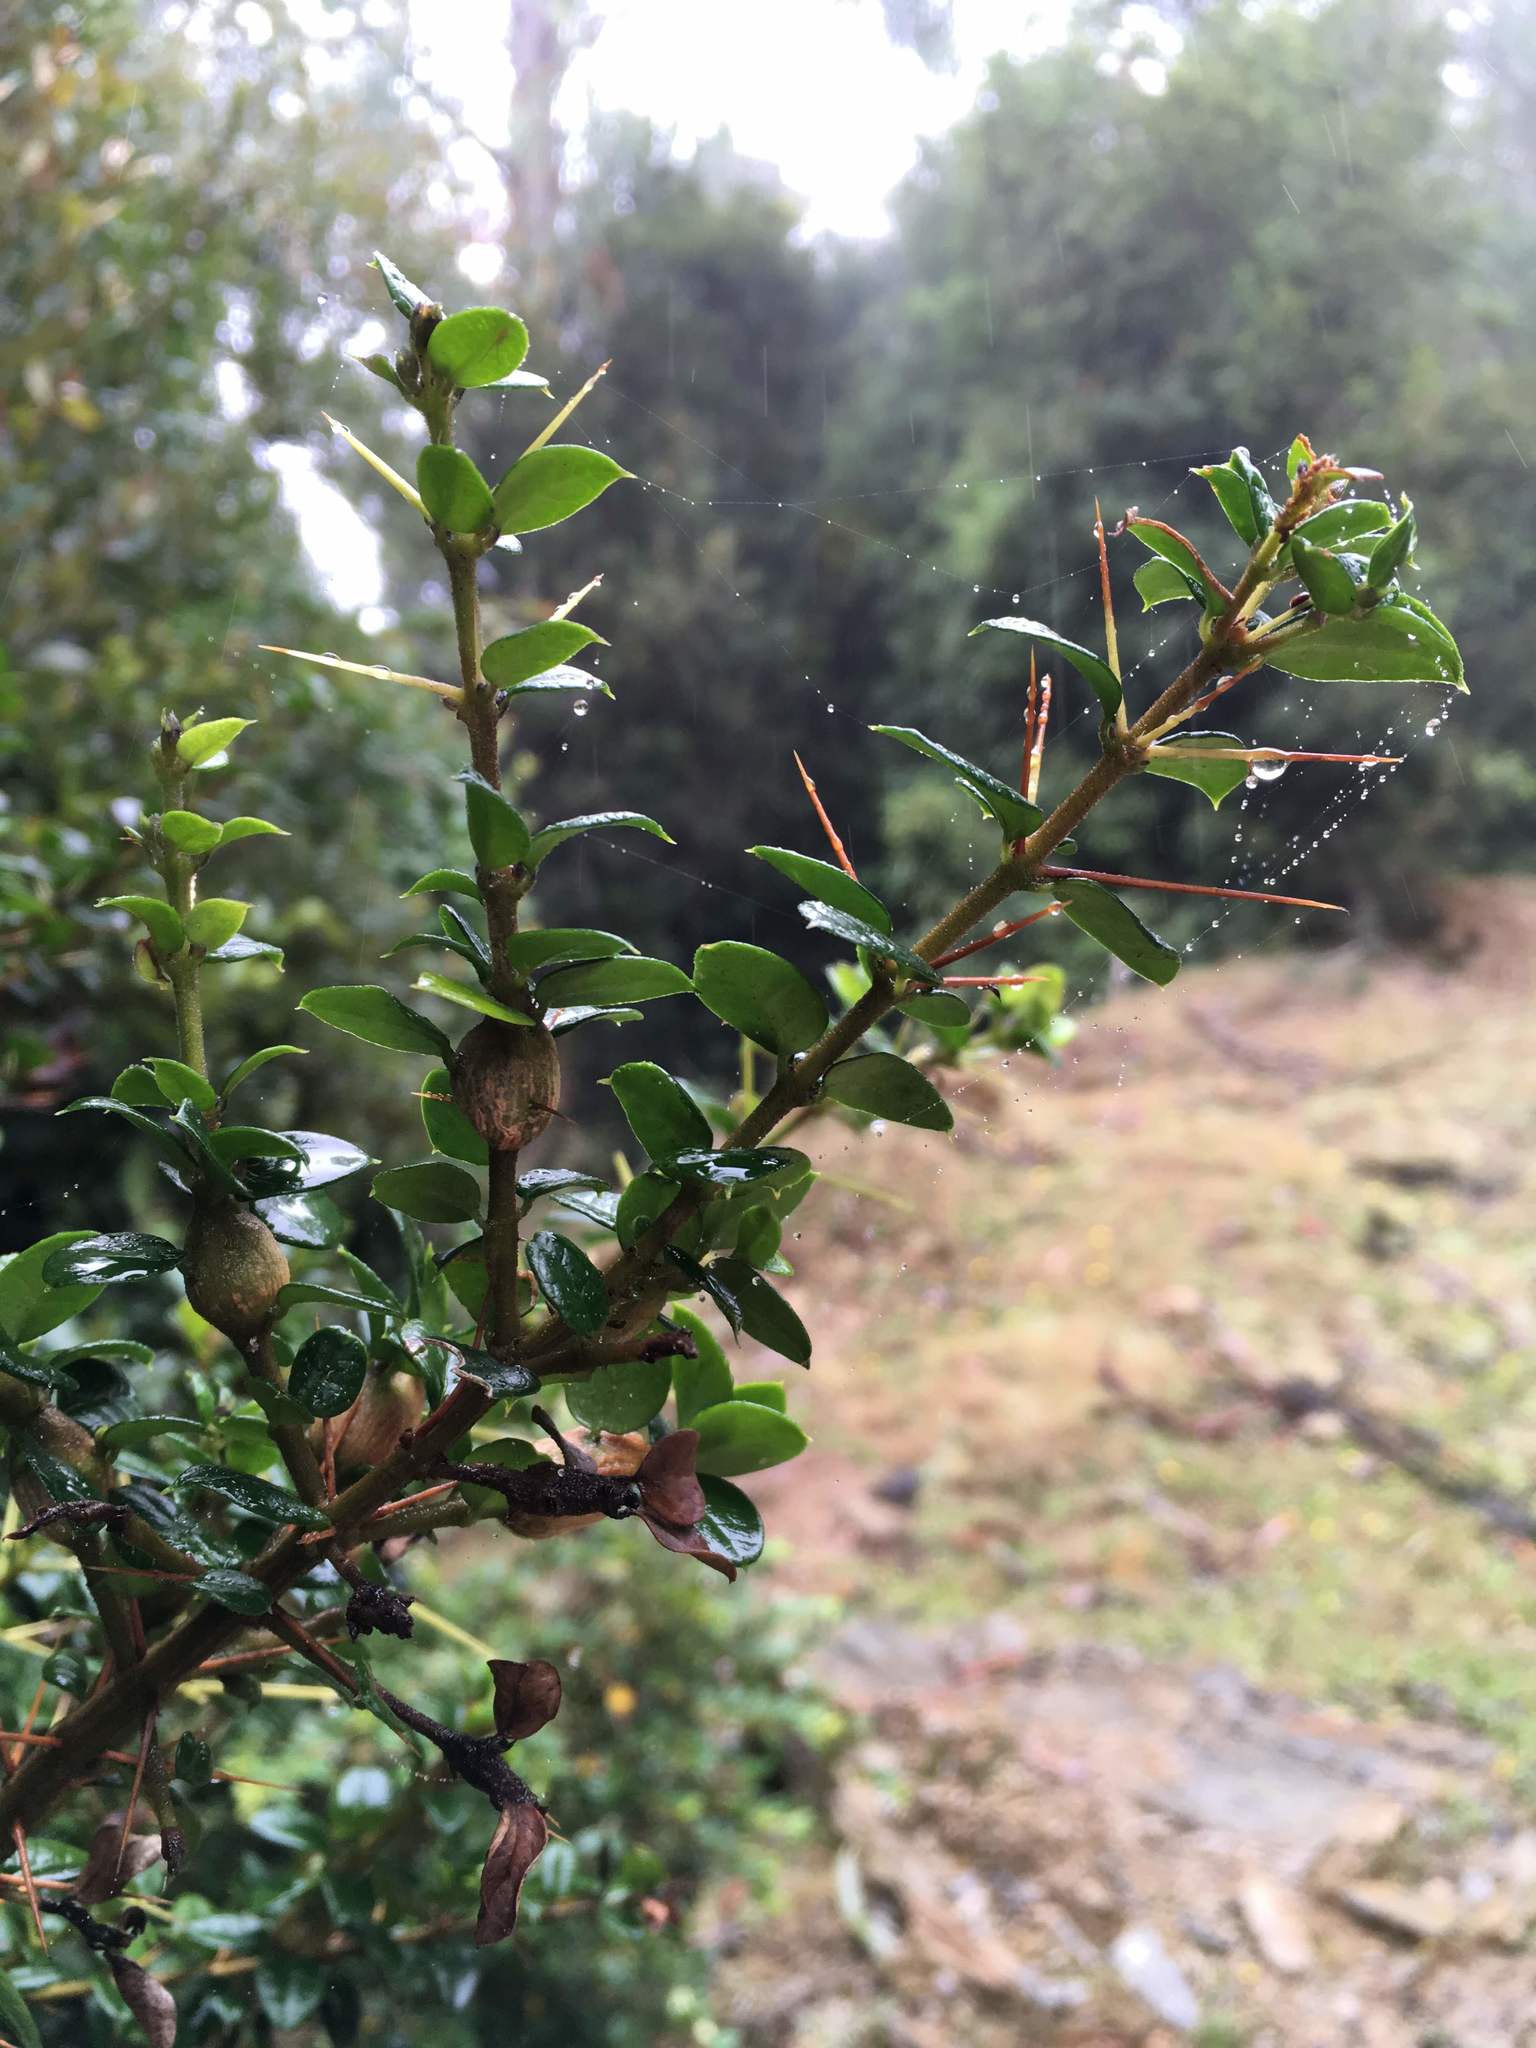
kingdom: Plantae
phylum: Tracheophyta
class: Magnoliopsida
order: Lamiales
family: Verbenaceae
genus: Rhaphithamnus
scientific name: Rhaphithamnus spinosus
